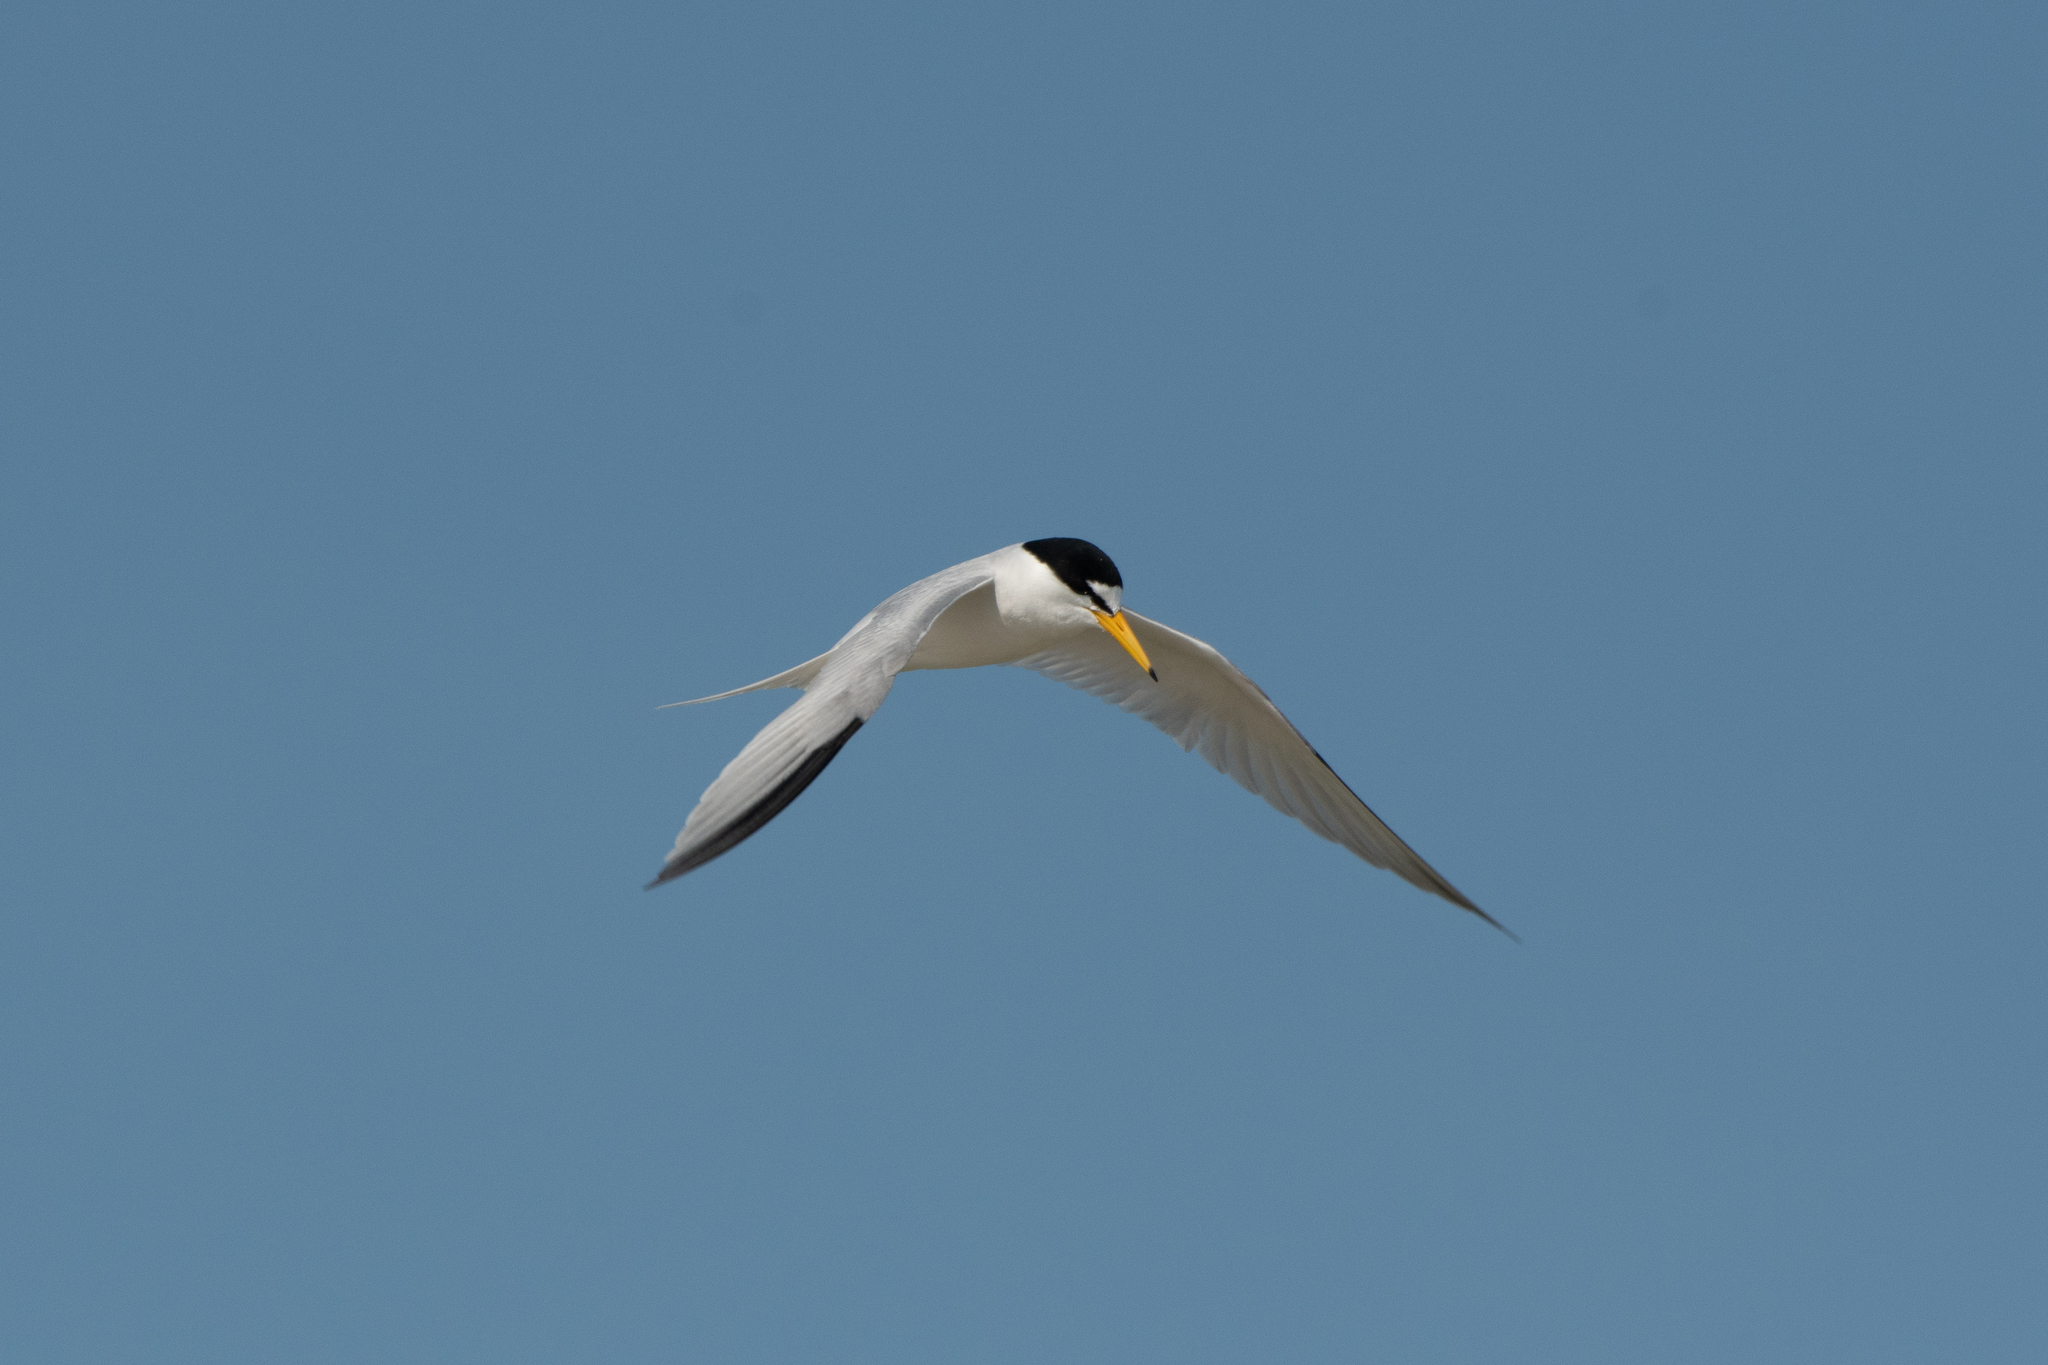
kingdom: Animalia
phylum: Chordata
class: Aves
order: Charadriiformes
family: Laridae
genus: Sternula
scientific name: Sternula antillarum
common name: Least tern
